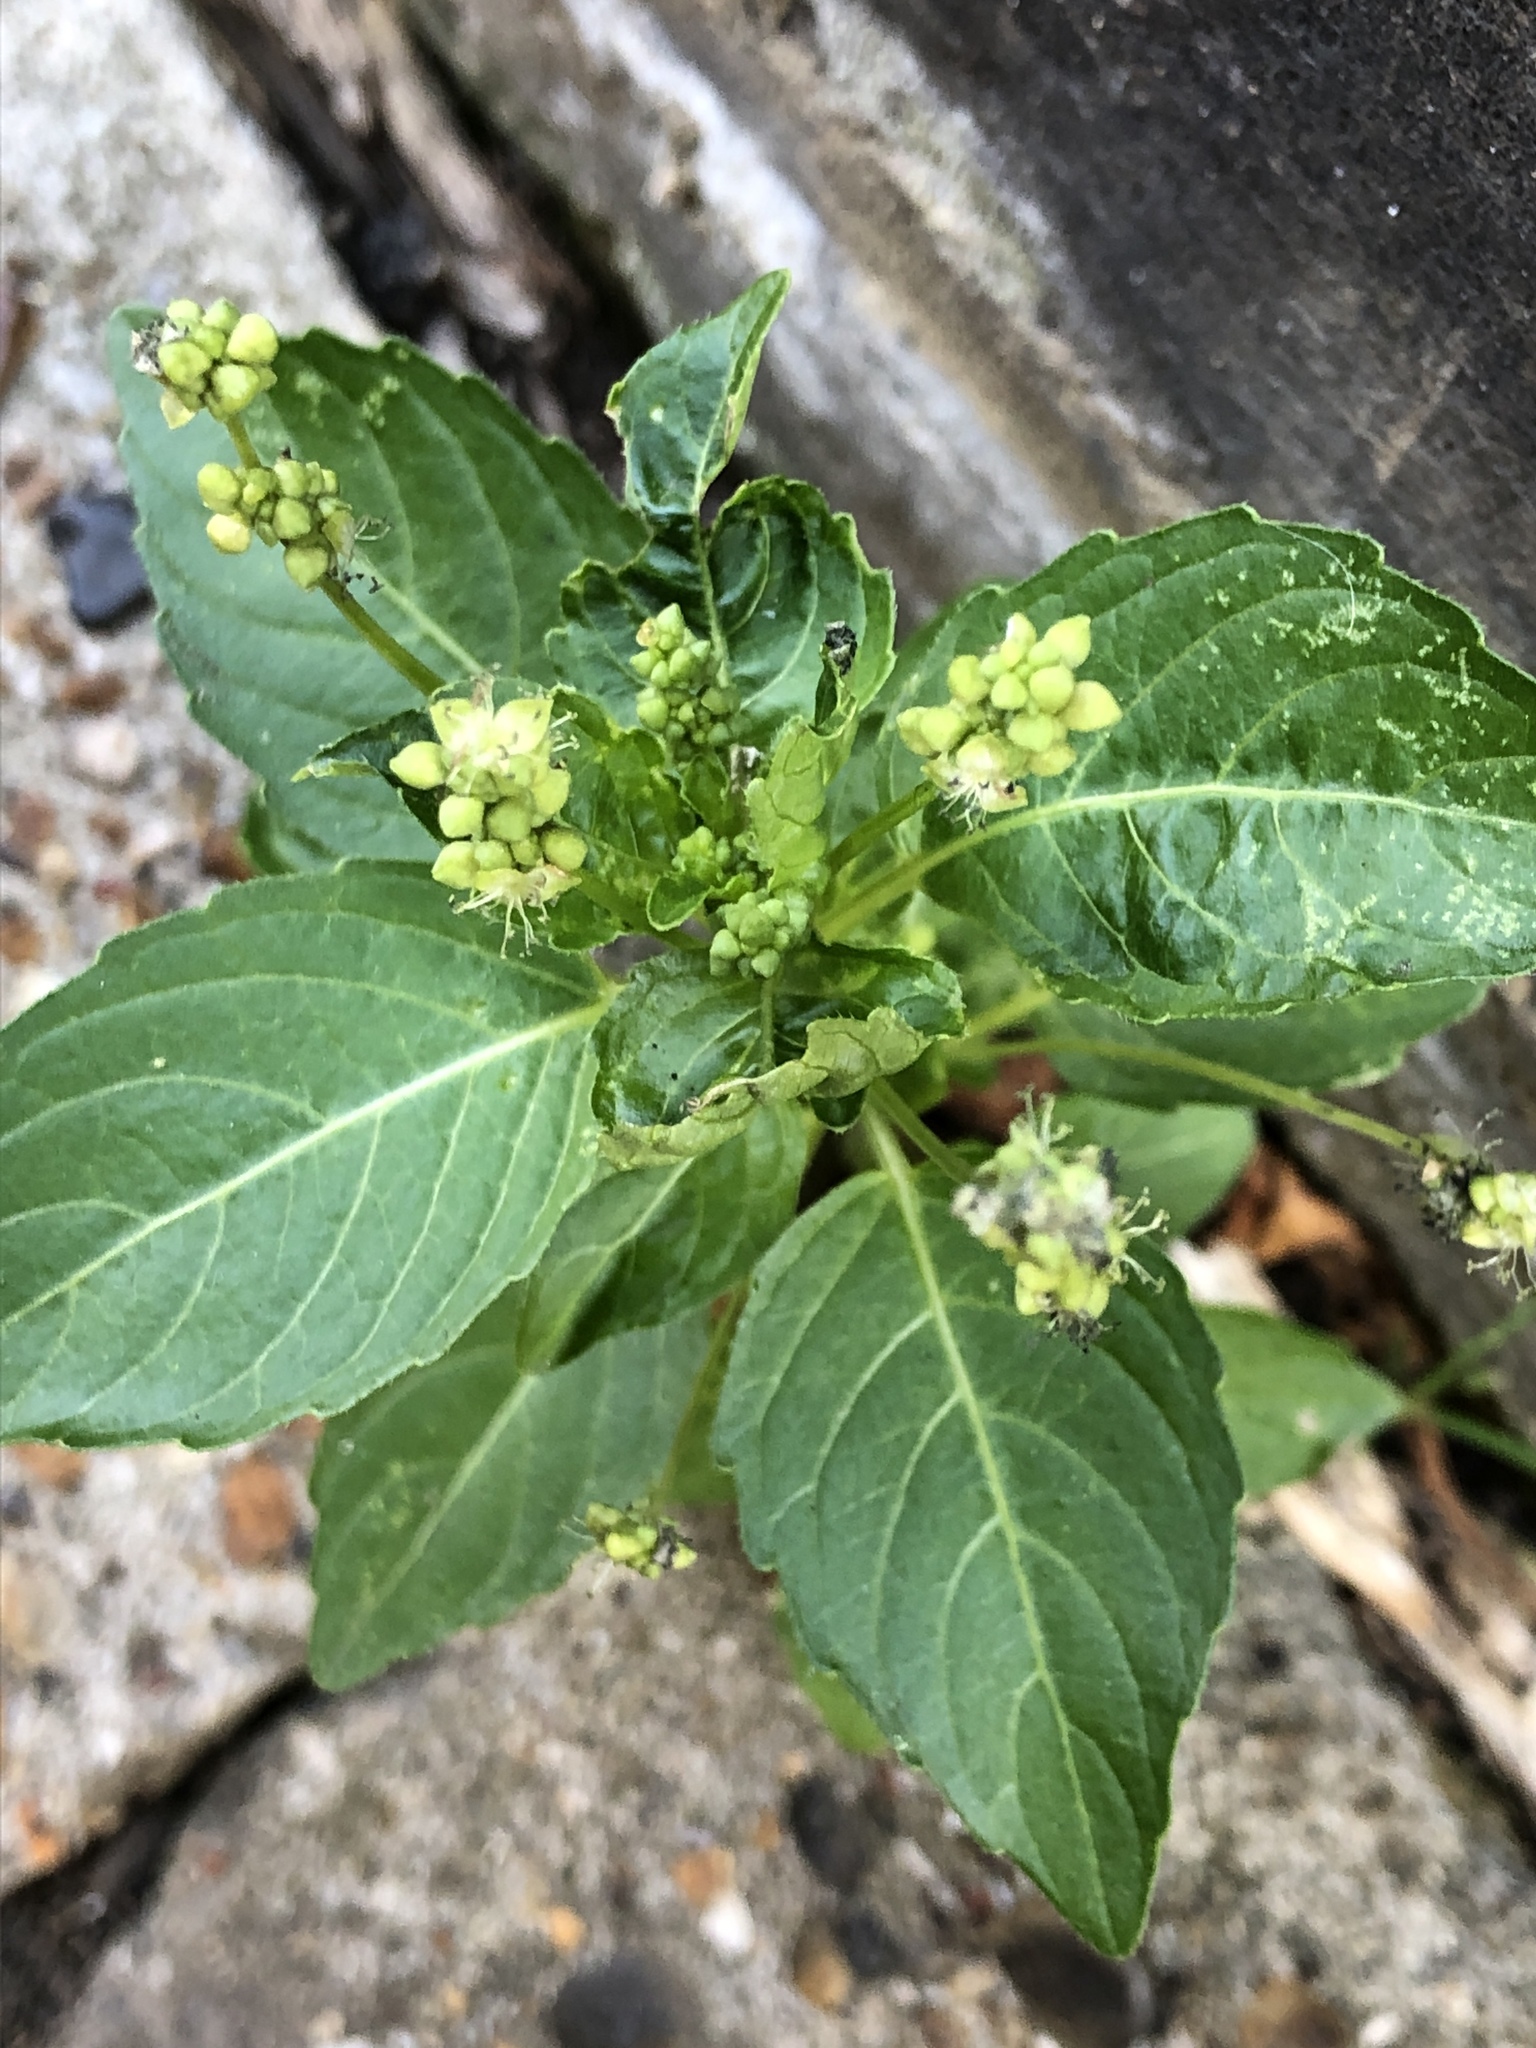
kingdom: Plantae
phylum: Tracheophyta
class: Magnoliopsida
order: Malpighiales
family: Euphorbiaceae
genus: Mercurialis
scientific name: Mercurialis annua
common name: Annual mercury
